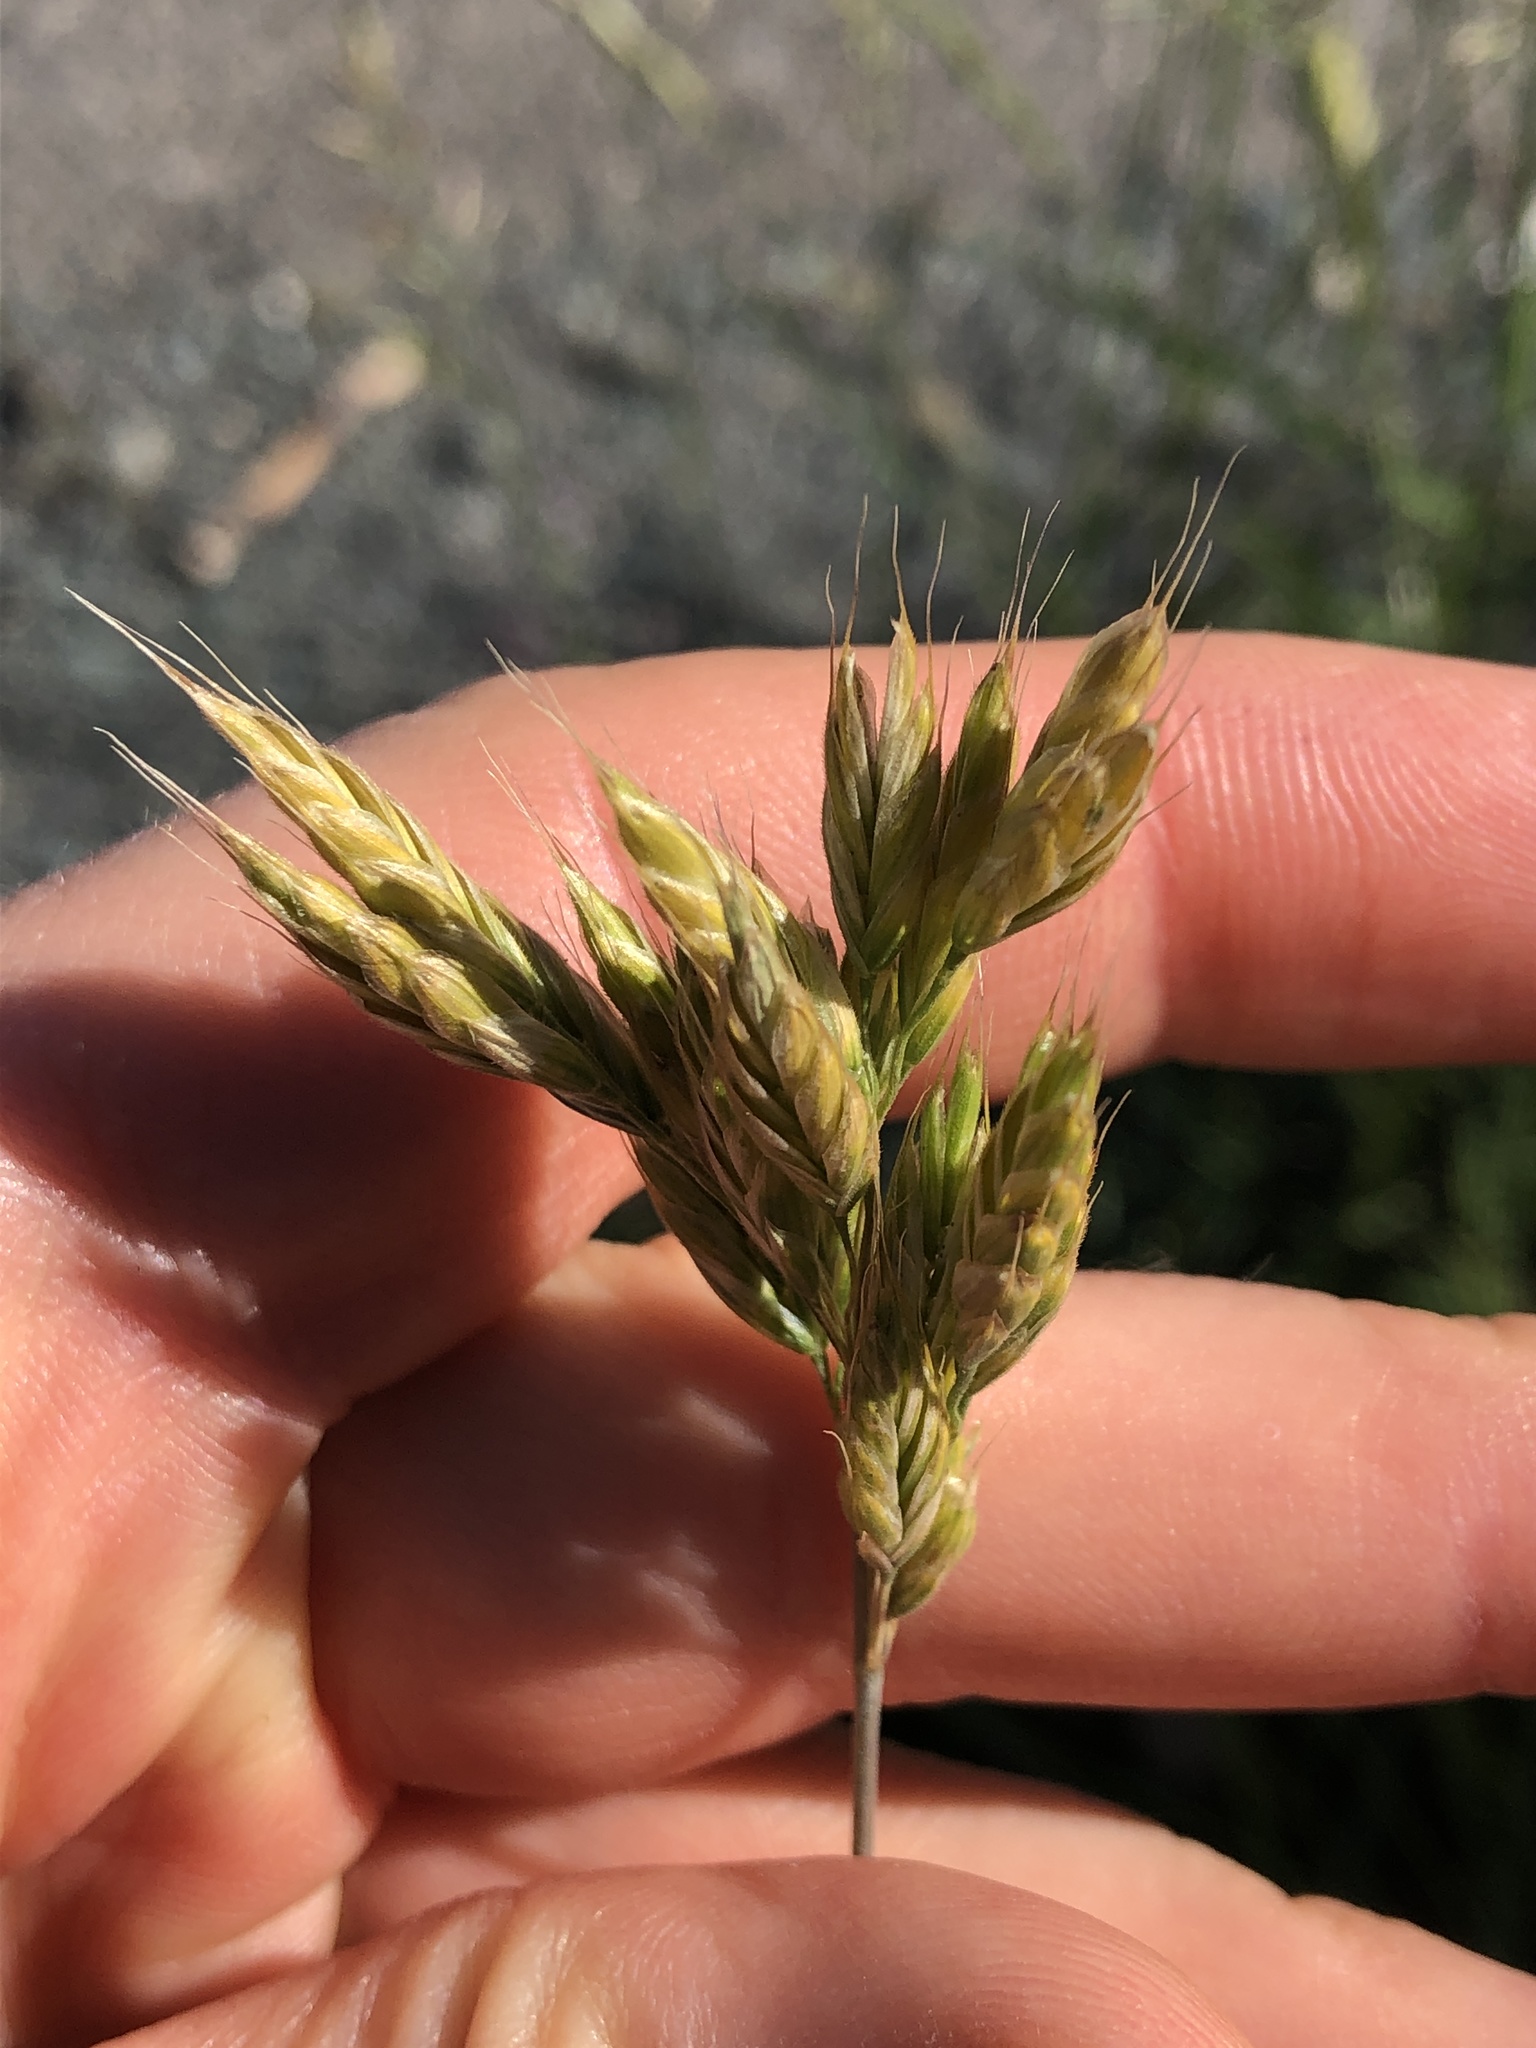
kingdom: Plantae
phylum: Tracheophyta
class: Liliopsida
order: Poales
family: Poaceae
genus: Bromus
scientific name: Bromus hordeaceus
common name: Soft brome
